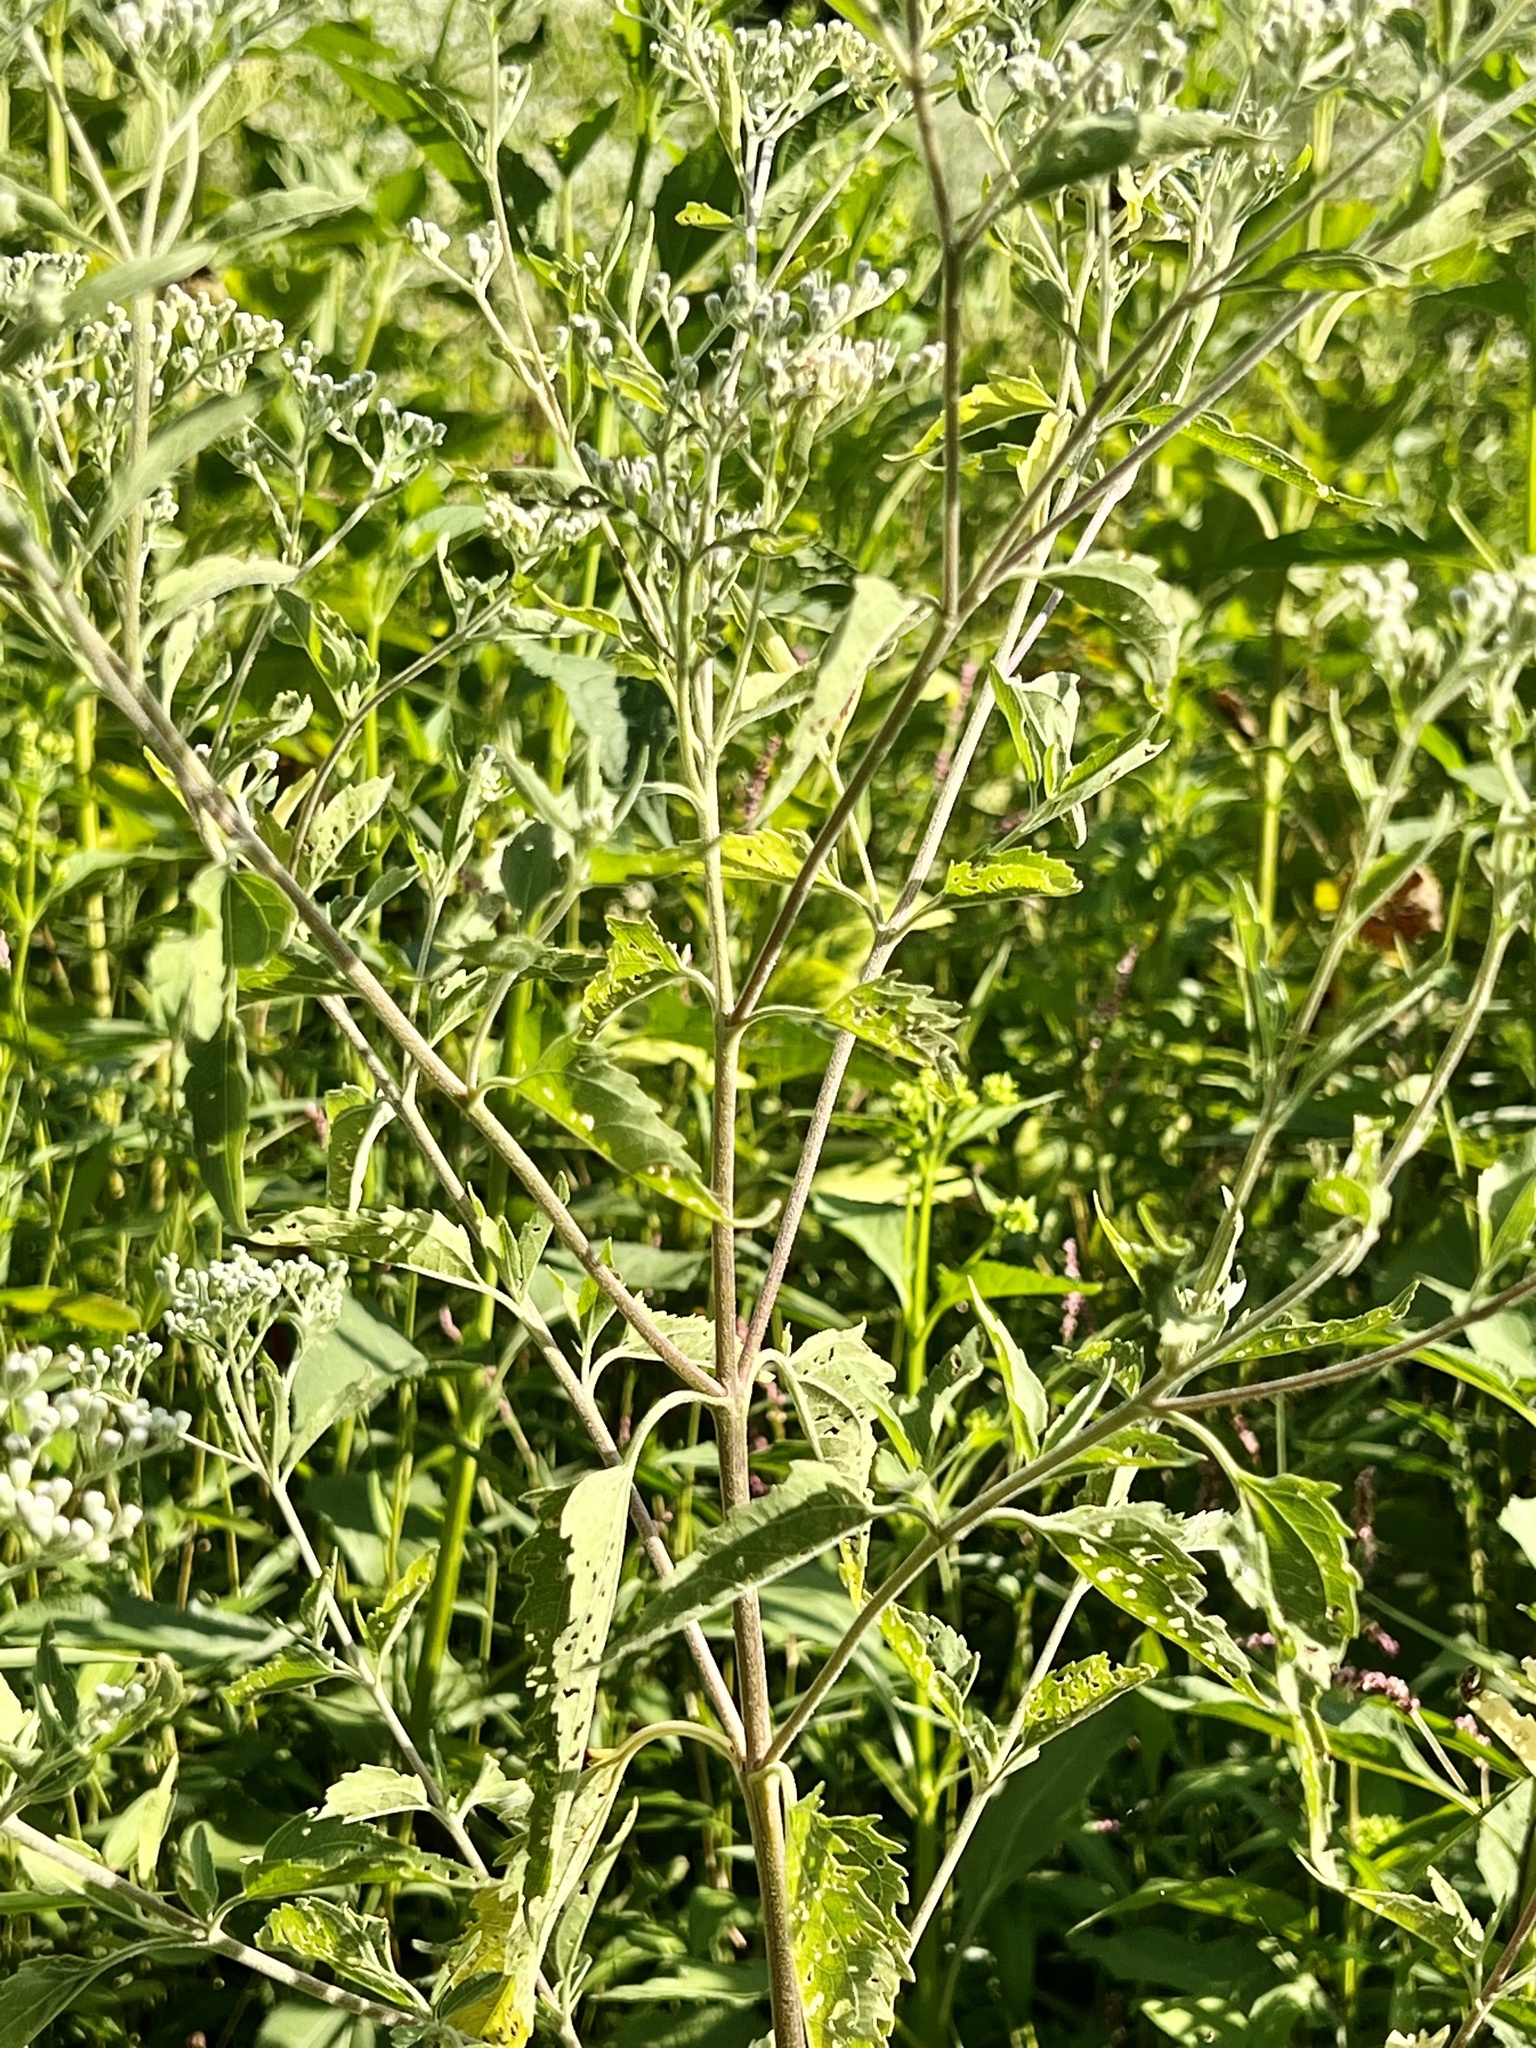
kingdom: Plantae
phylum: Tracheophyta
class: Magnoliopsida
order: Asterales
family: Asteraceae
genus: Eupatorium
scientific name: Eupatorium serotinum
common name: Late boneset
